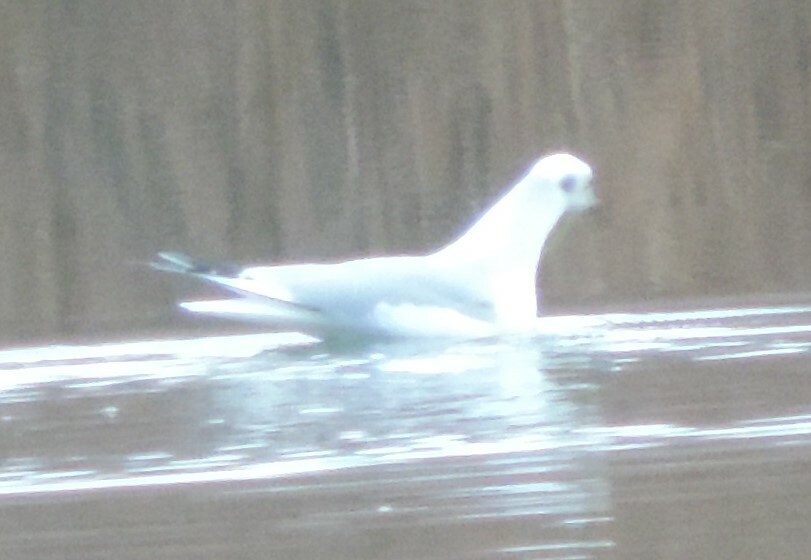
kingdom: Animalia
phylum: Chordata
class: Aves
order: Charadriiformes
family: Laridae
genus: Chroicocephalus
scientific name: Chroicocephalus philadelphia
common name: Bonaparte's gull
